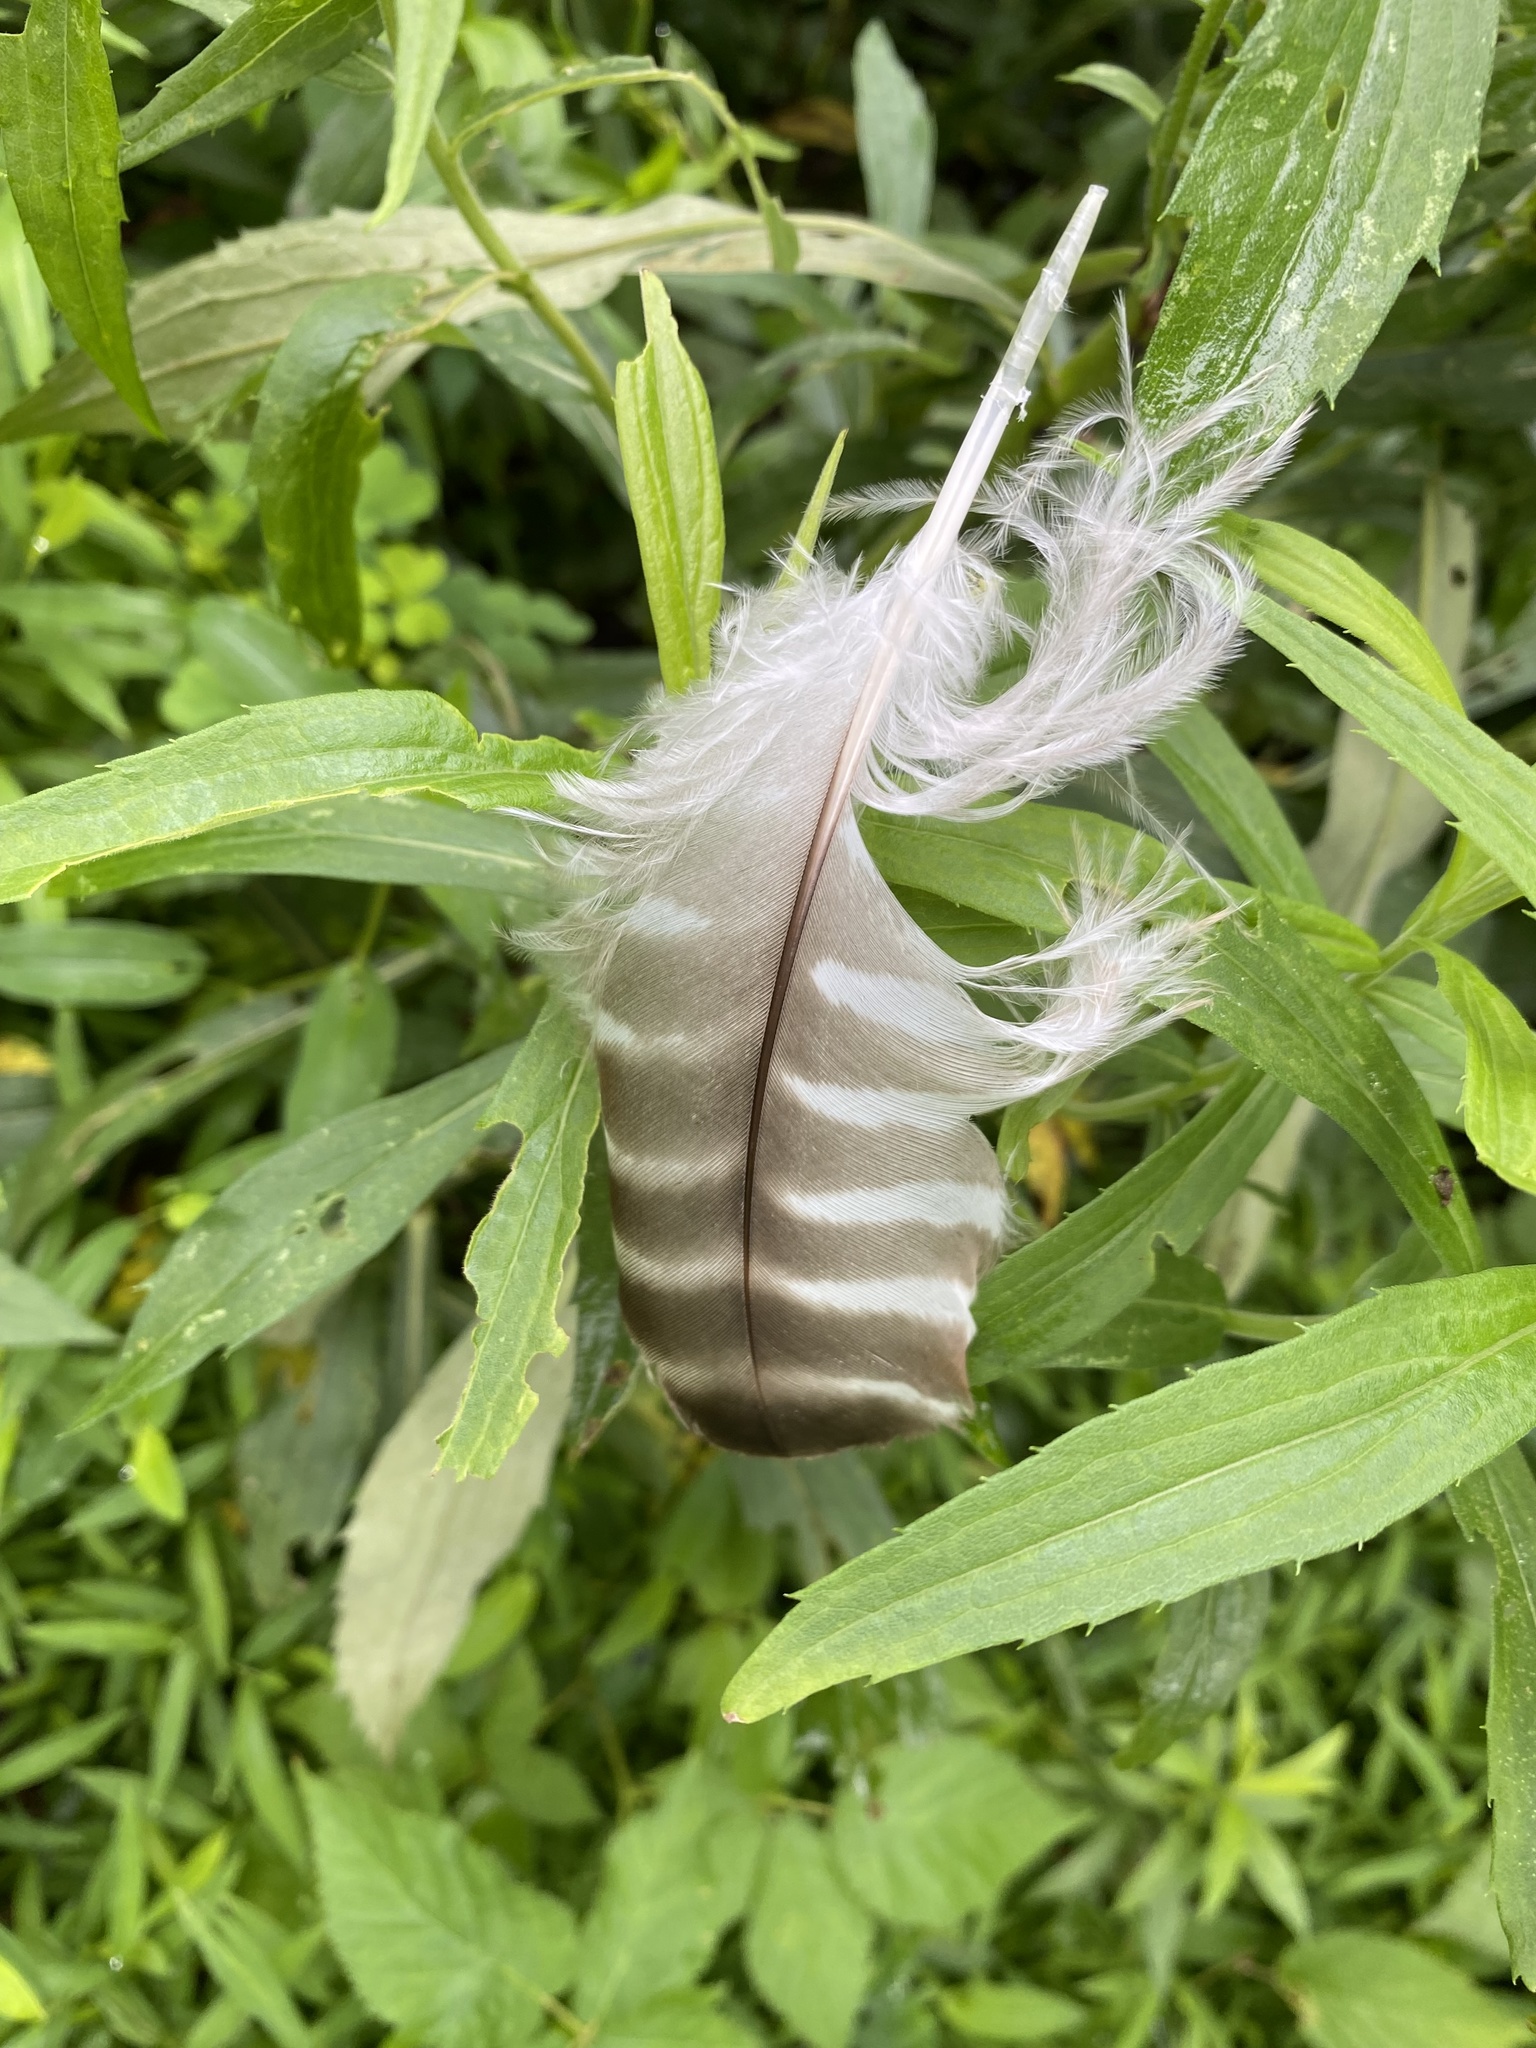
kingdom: Animalia
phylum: Chordata
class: Aves
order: Accipitriformes
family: Accipitridae
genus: Buteo
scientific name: Buteo lineatus
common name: Red-shouldered hawk
